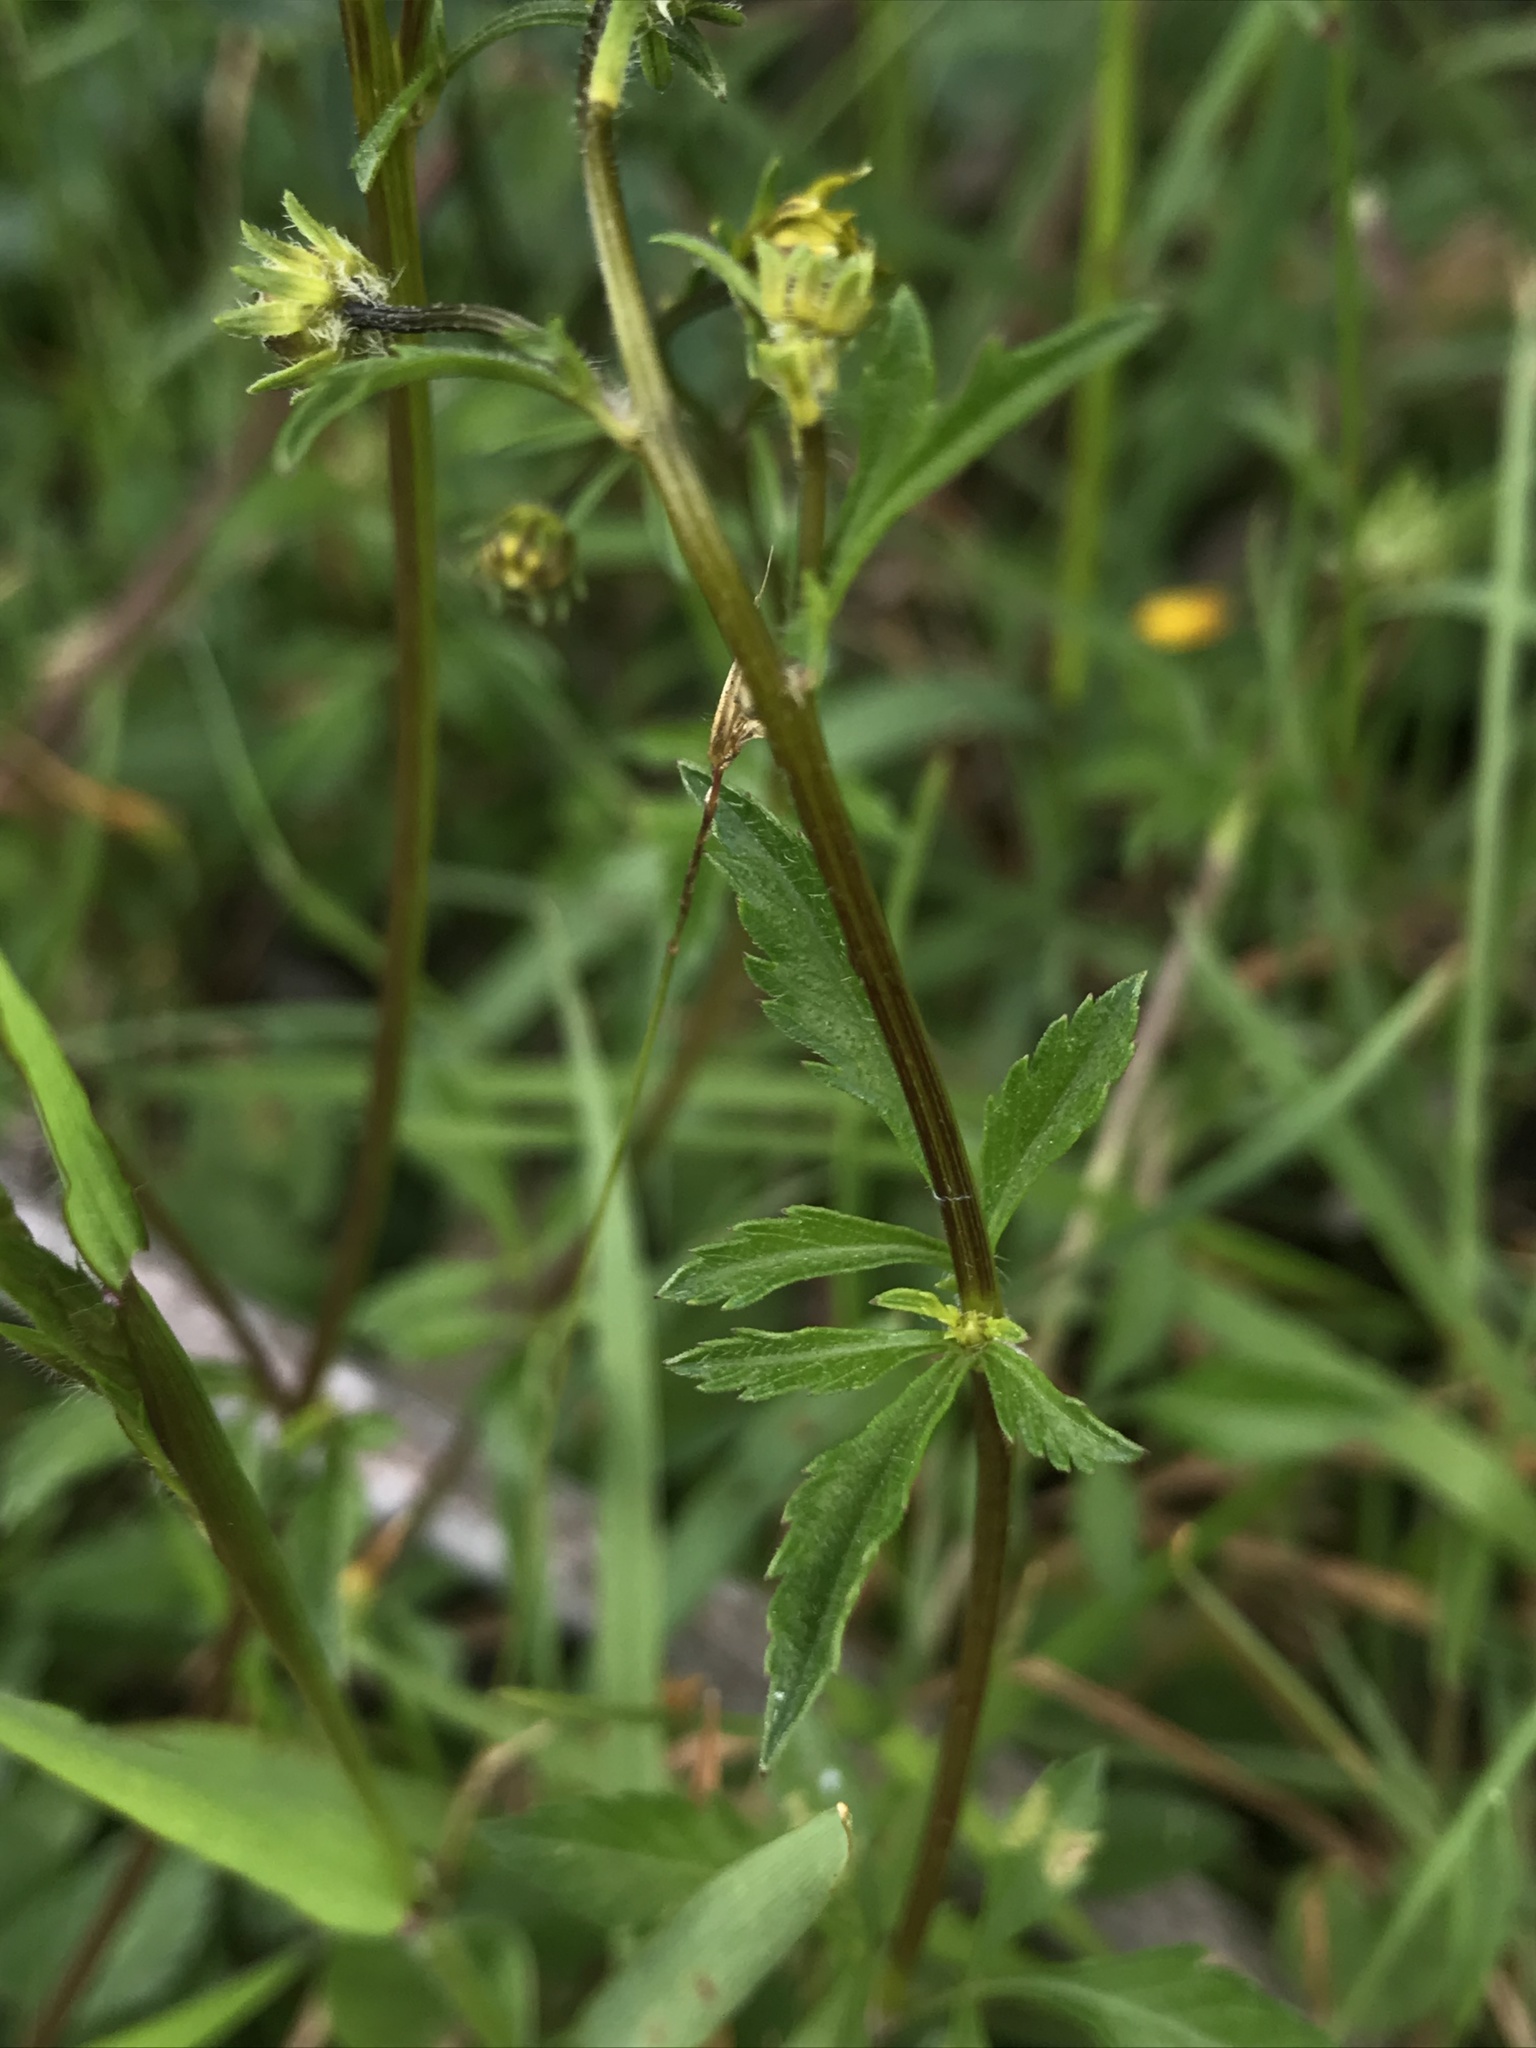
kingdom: Plantae
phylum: Tracheophyta
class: Magnoliopsida
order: Asterales
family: Asteraceae
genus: Bidens
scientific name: Bidens triplinervia
